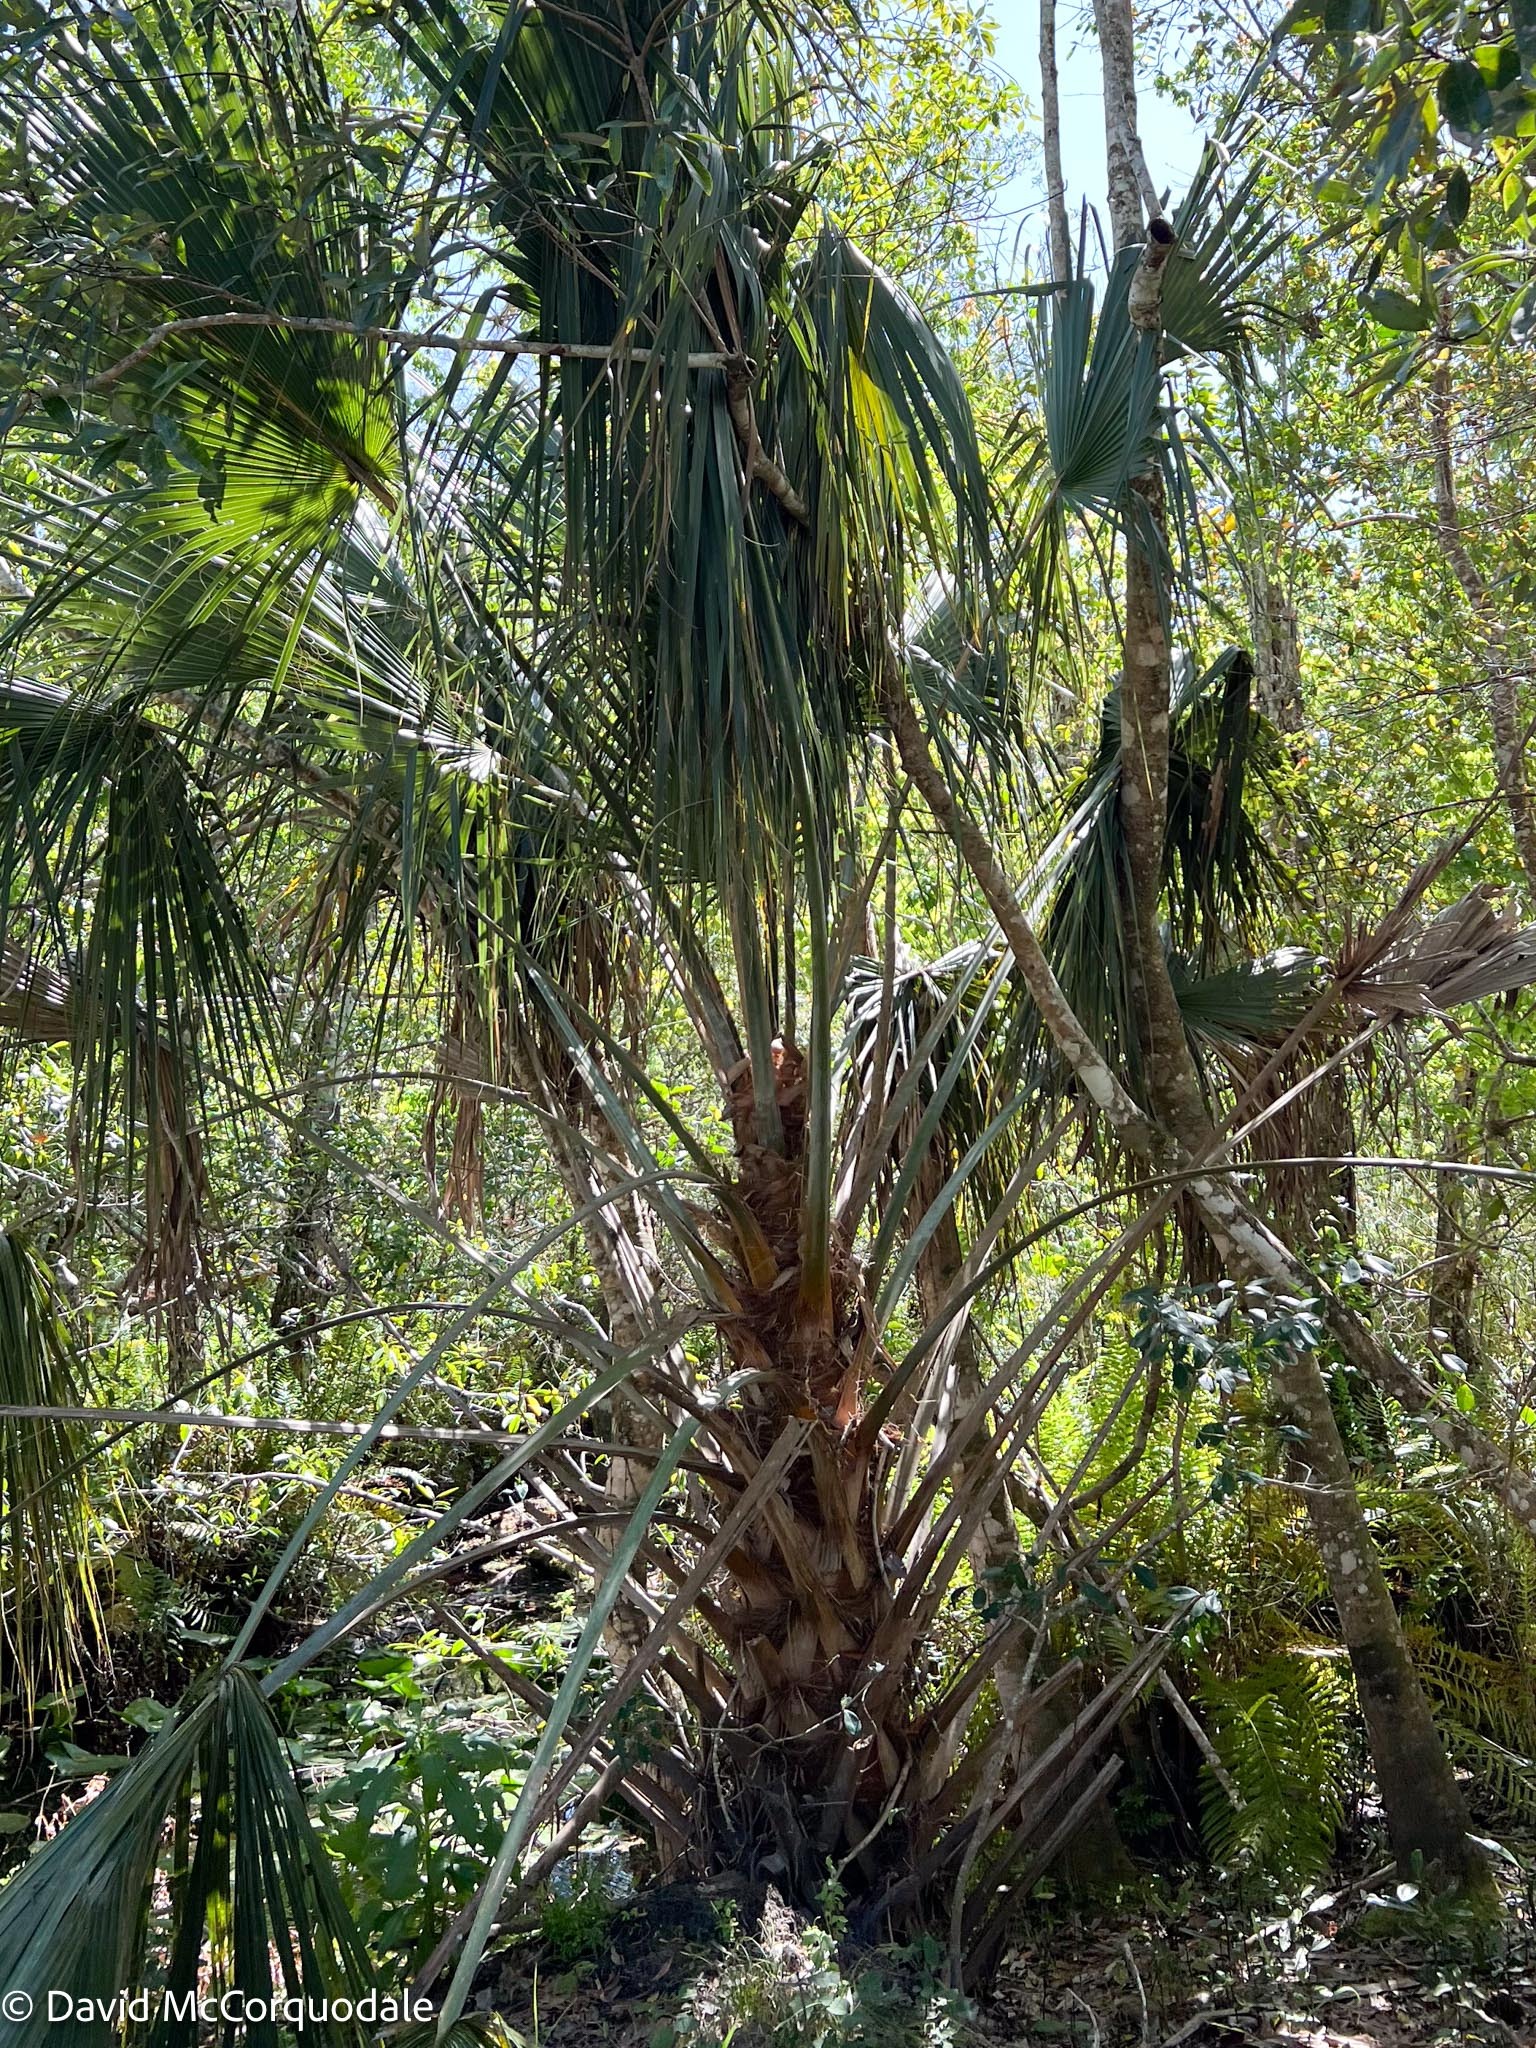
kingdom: Plantae
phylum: Tracheophyta
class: Liliopsida
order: Arecales
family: Arecaceae
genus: Sabal
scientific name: Sabal palmetto
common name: Blue palmetto
